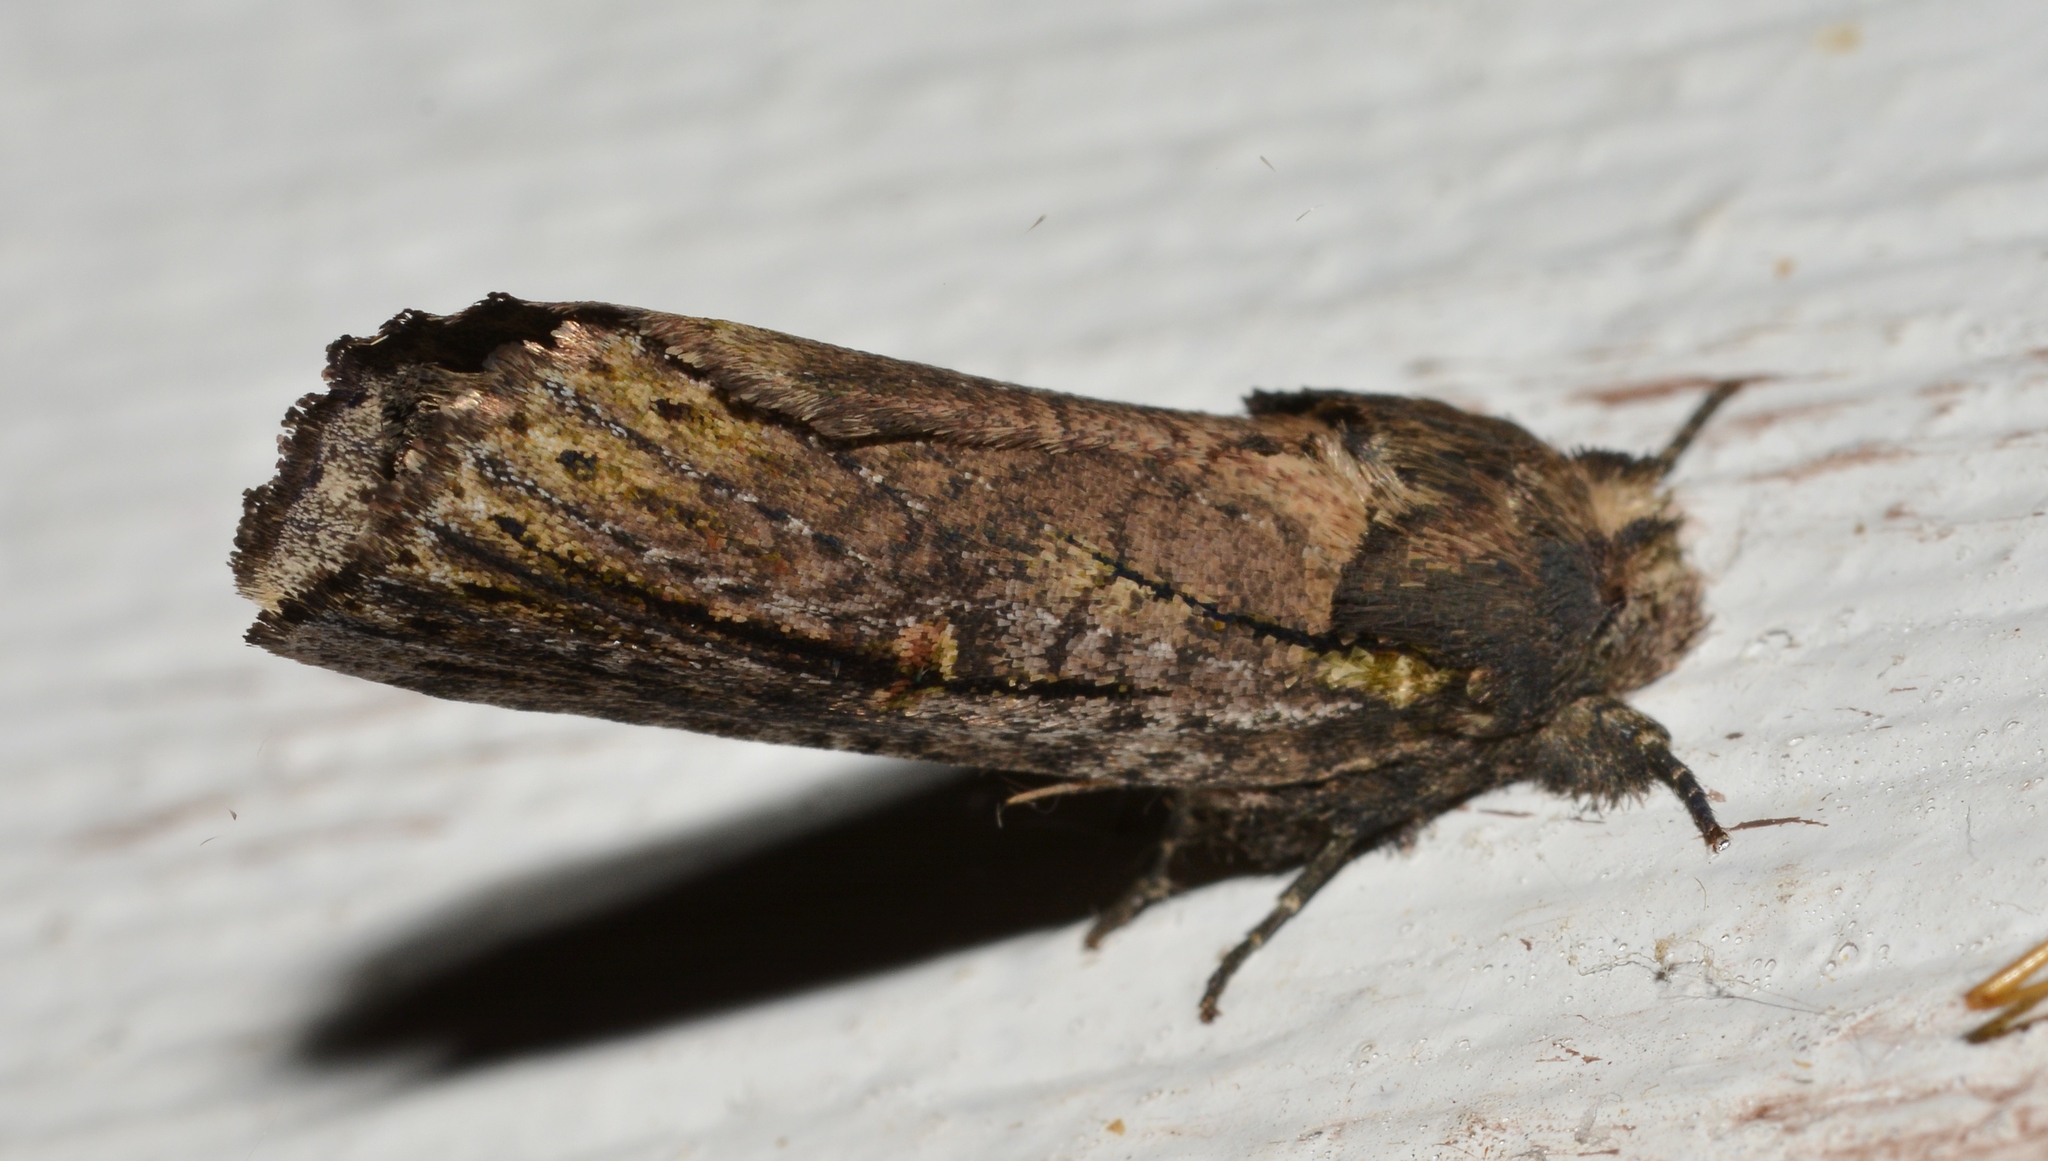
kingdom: Animalia
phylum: Arthropoda
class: Insecta
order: Lepidoptera
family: Notodontidae
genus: Schizura
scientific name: Schizura ipomaeae
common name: Morning-glory prominent
